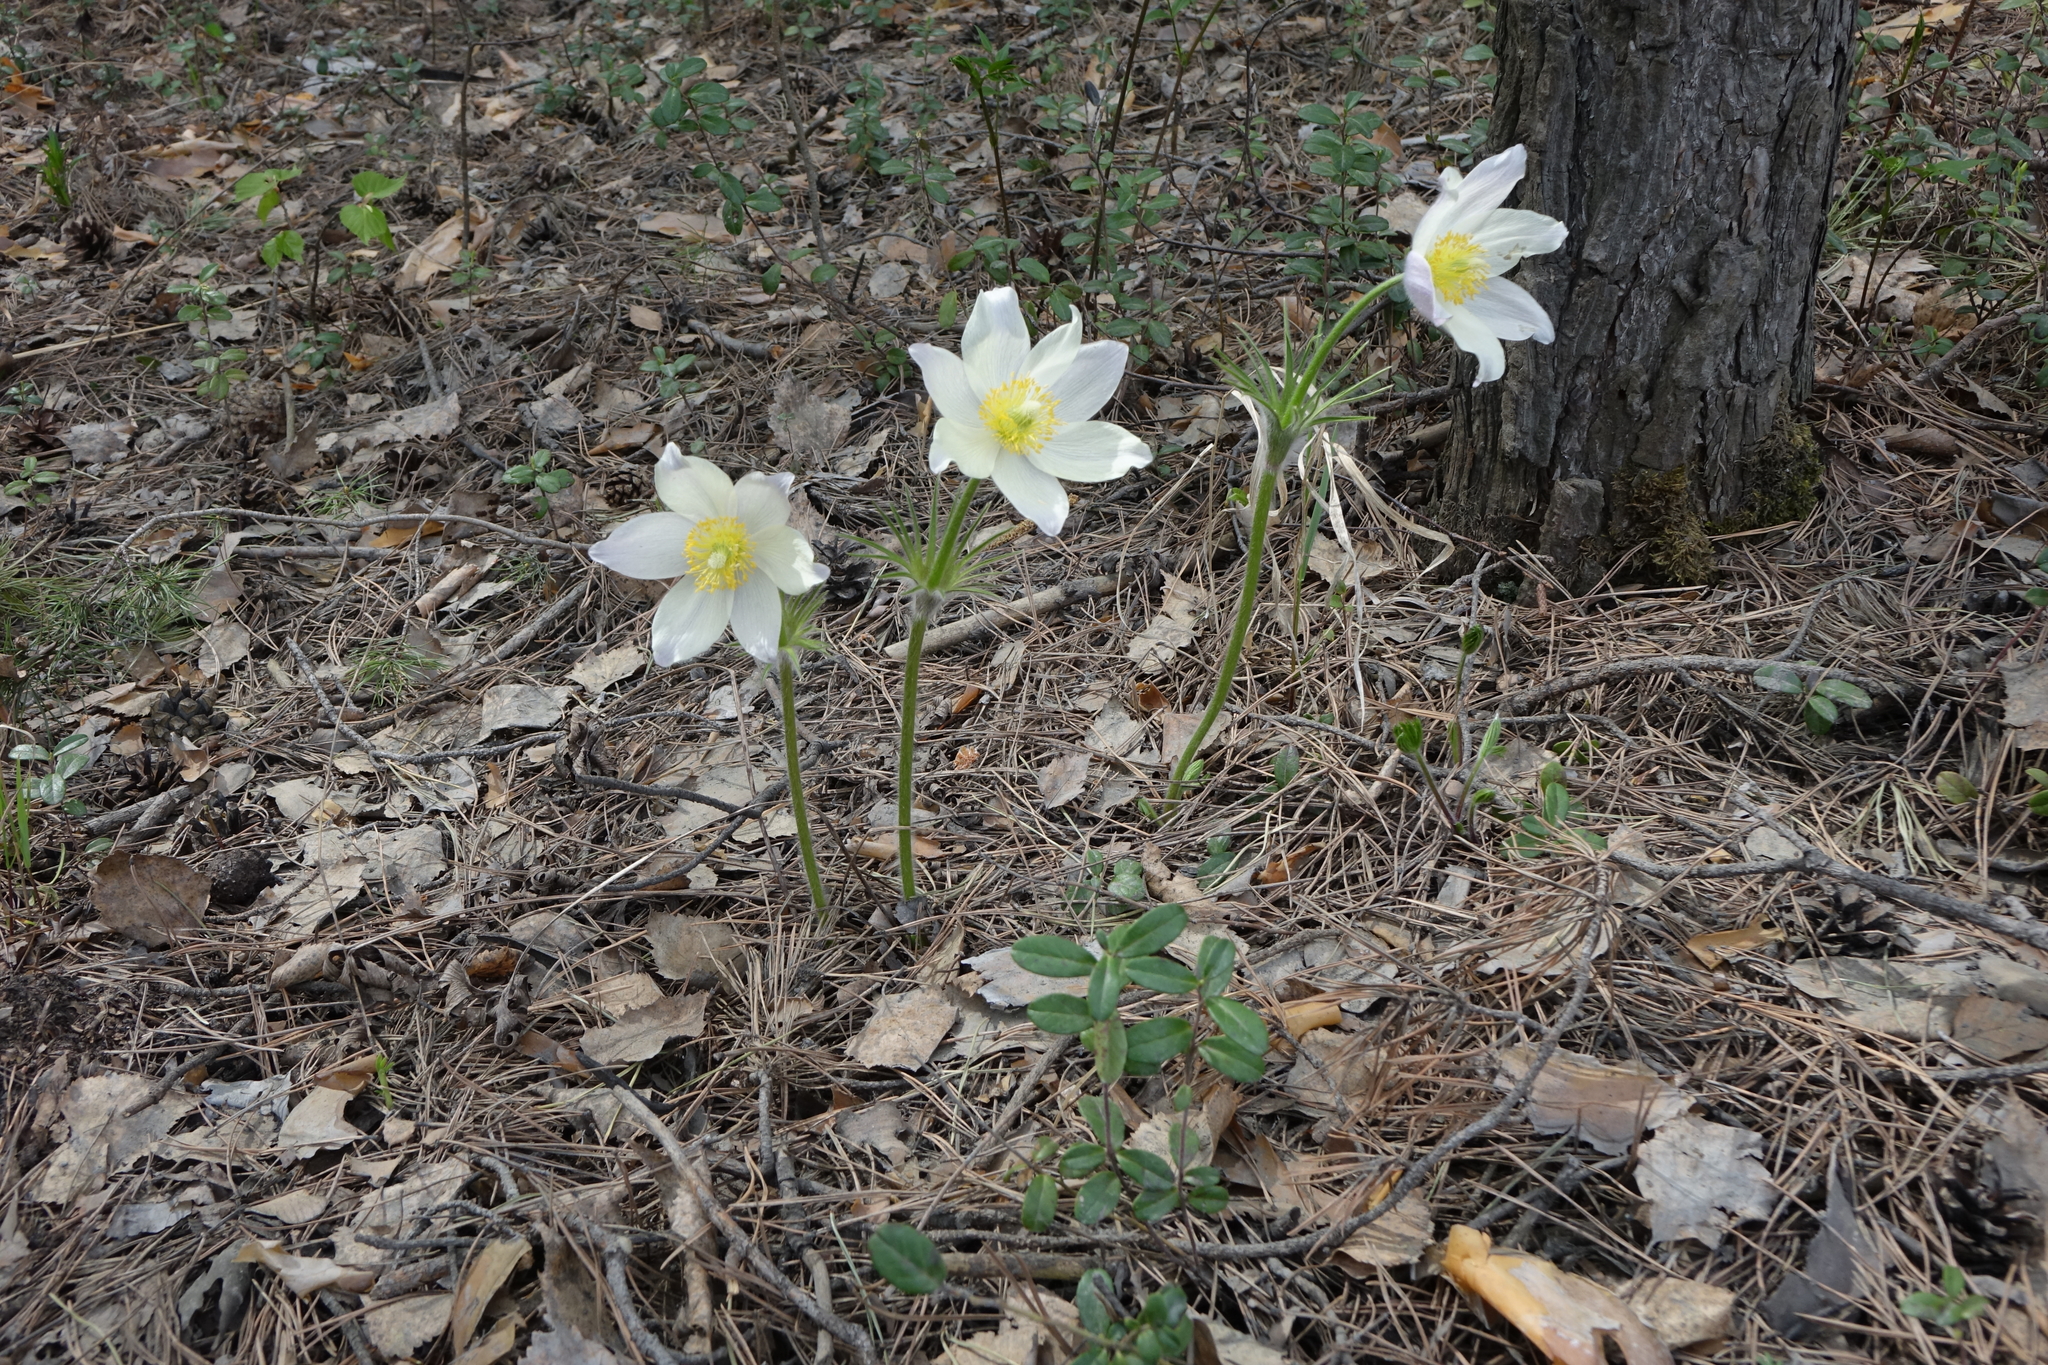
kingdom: Plantae
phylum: Tracheophyta
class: Magnoliopsida
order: Ranunculales
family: Ranunculaceae
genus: Pulsatilla
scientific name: Pulsatilla patens
